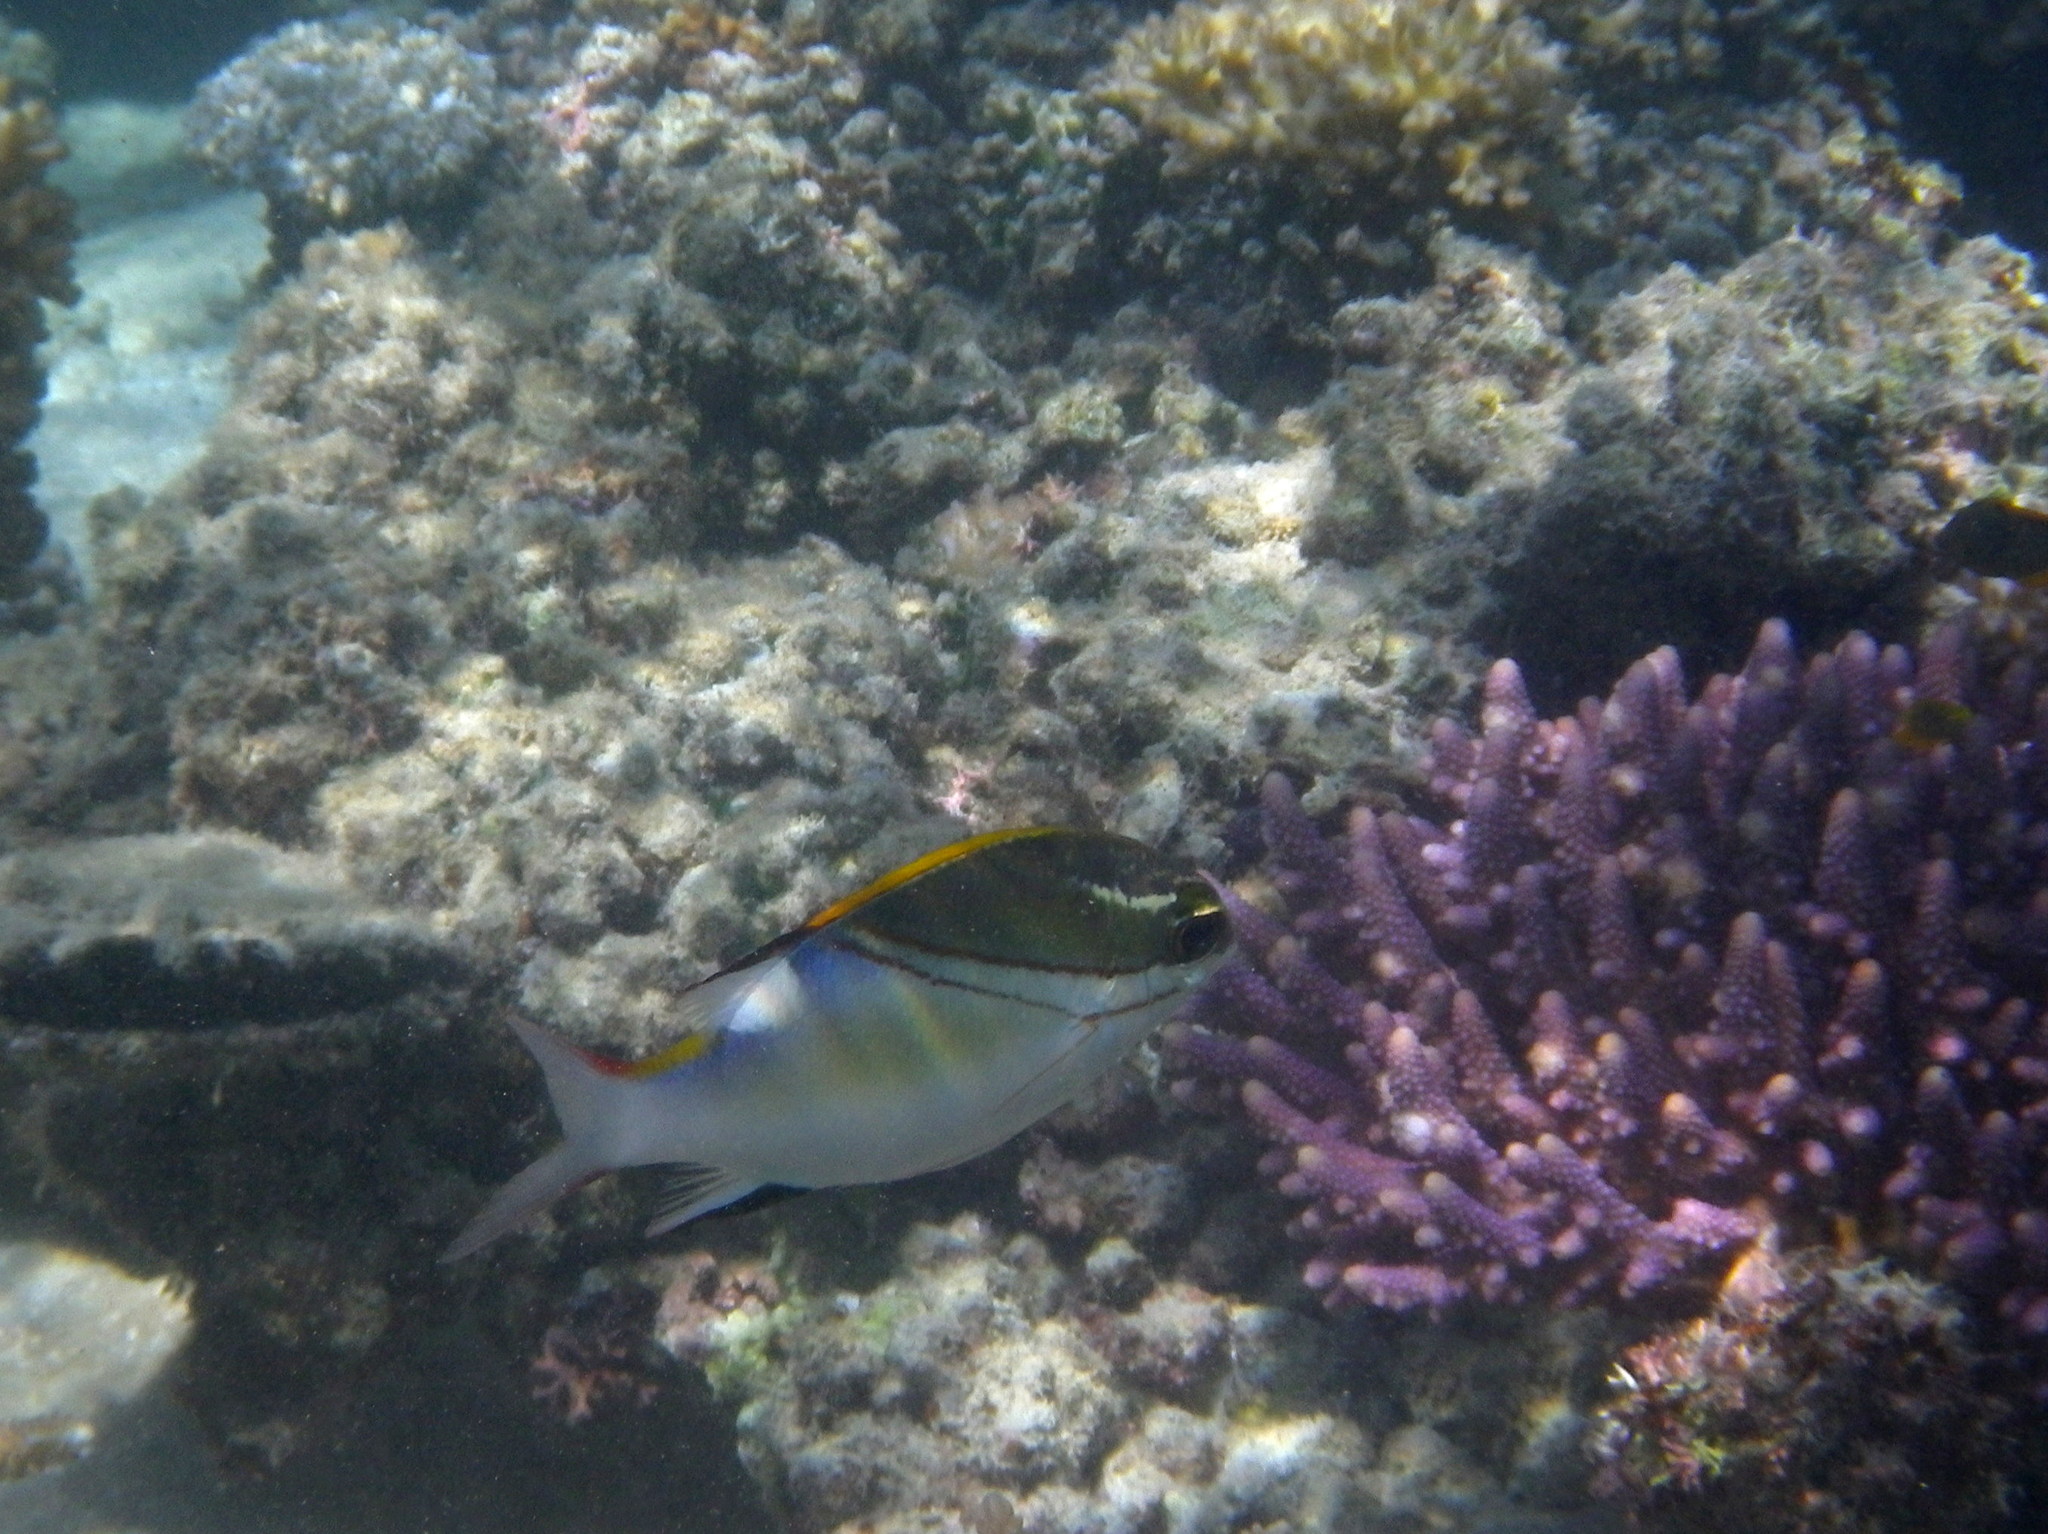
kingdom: Animalia
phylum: Chordata
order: Perciformes
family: Nemipteridae
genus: Scolopsis
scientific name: Scolopsis bilineata
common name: Two-lined monocle bream
